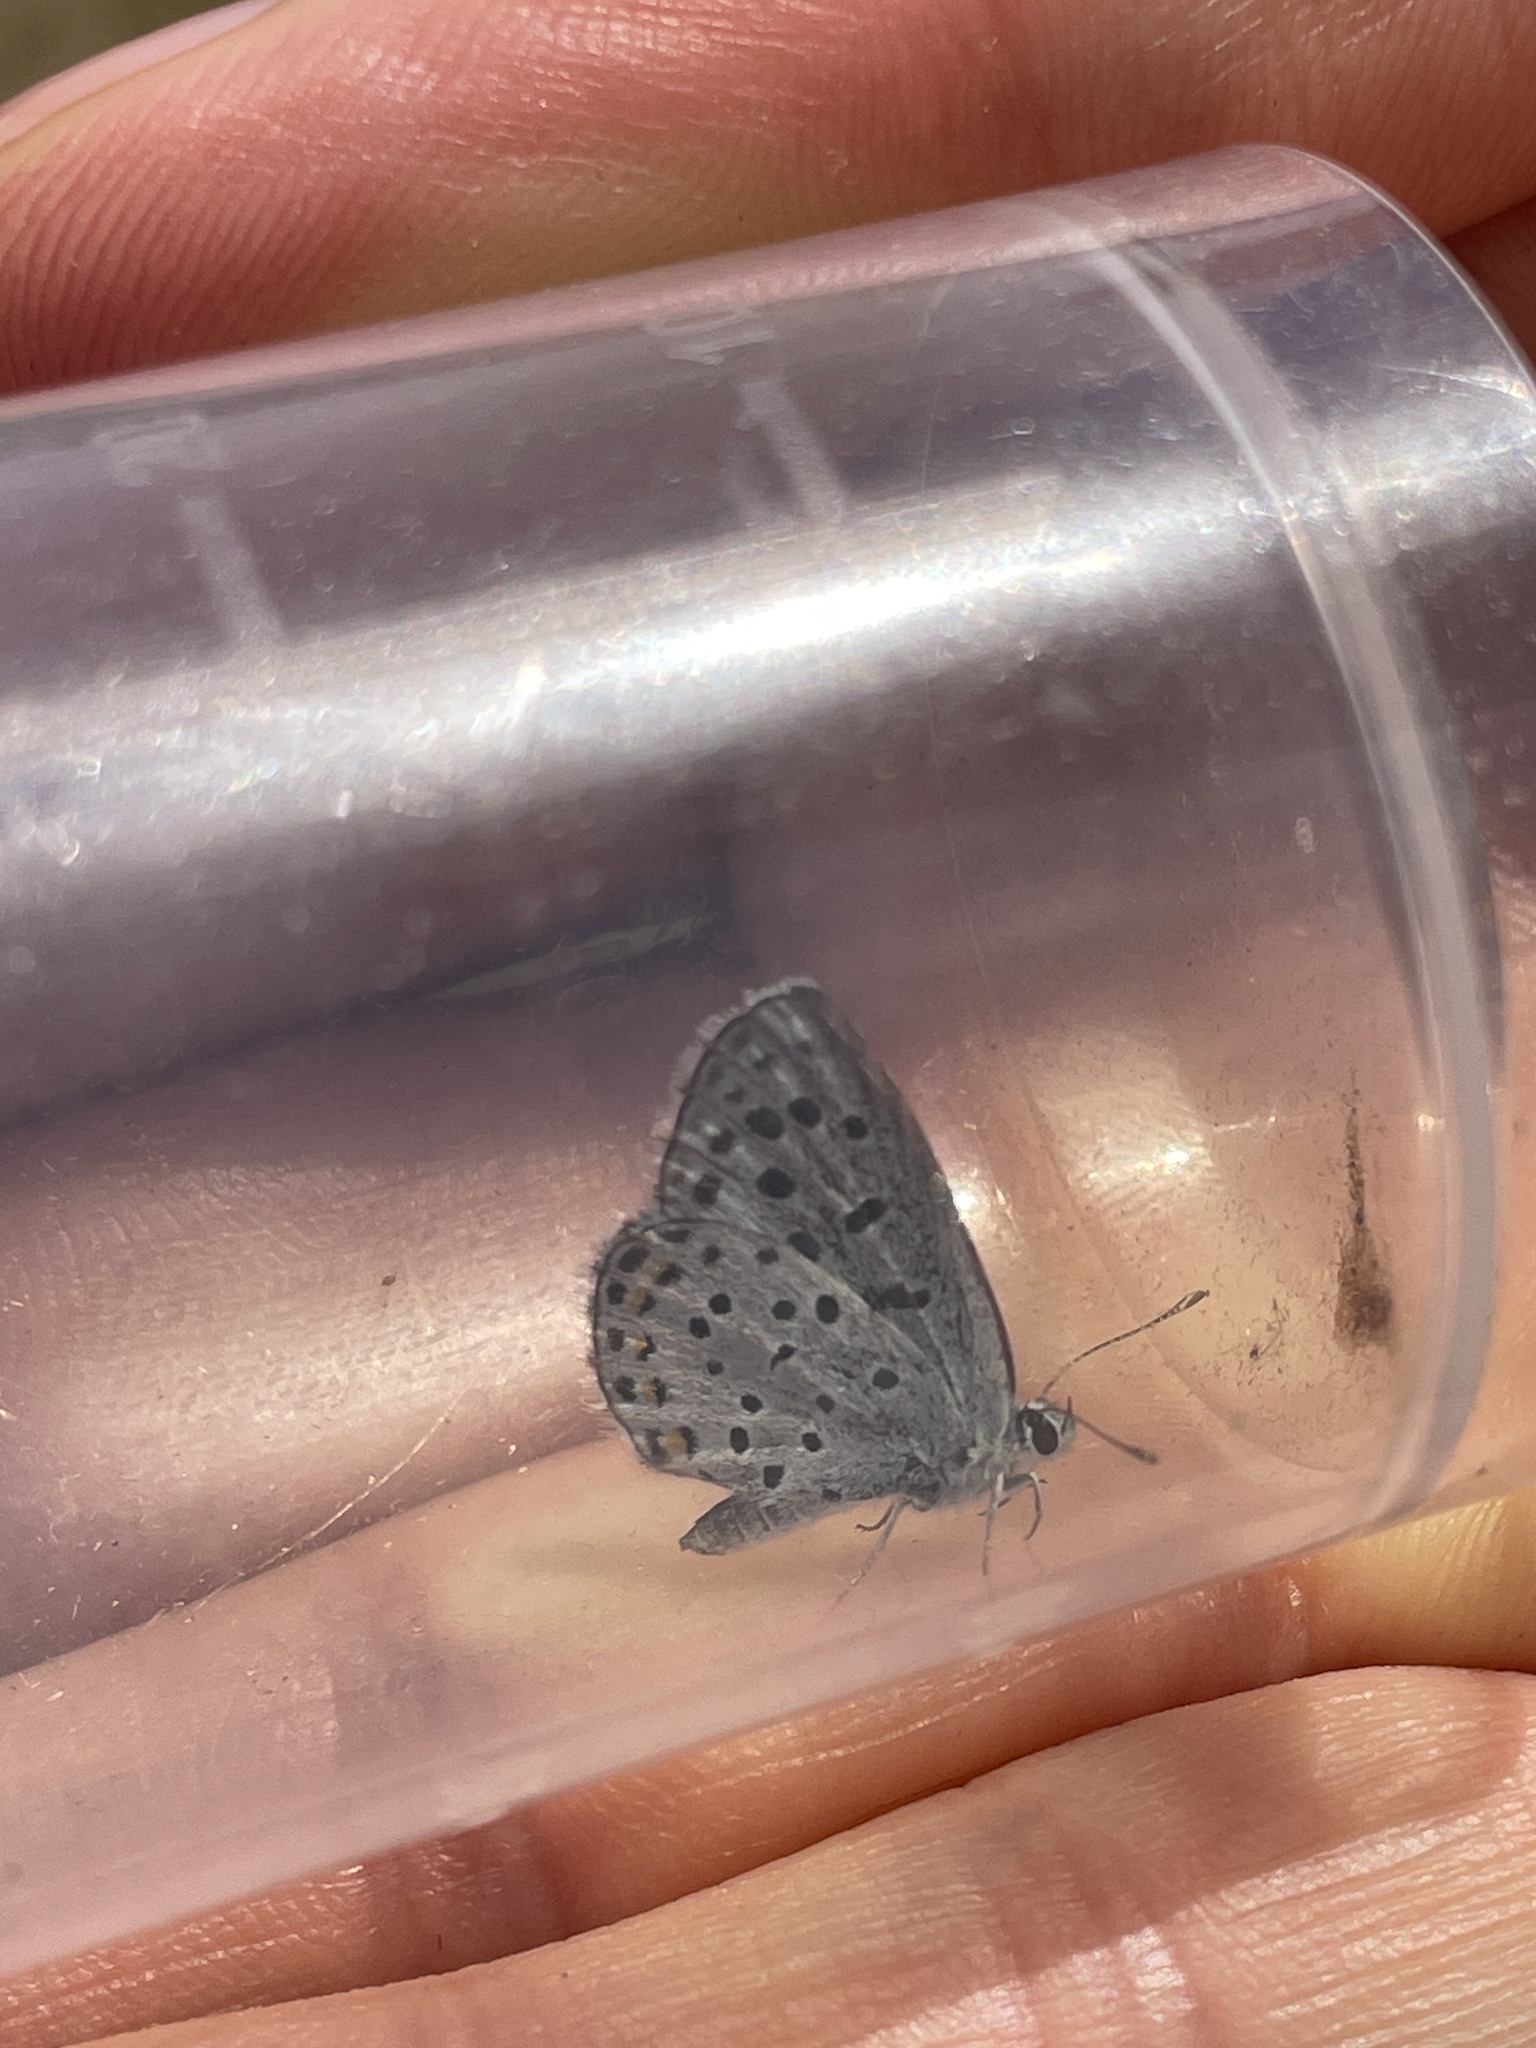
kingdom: Animalia
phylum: Arthropoda
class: Insecta
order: Lepidoptera
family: Lycaenidae
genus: Pseudophilotes
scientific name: Pseudophilotes baton
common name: Baton blue
